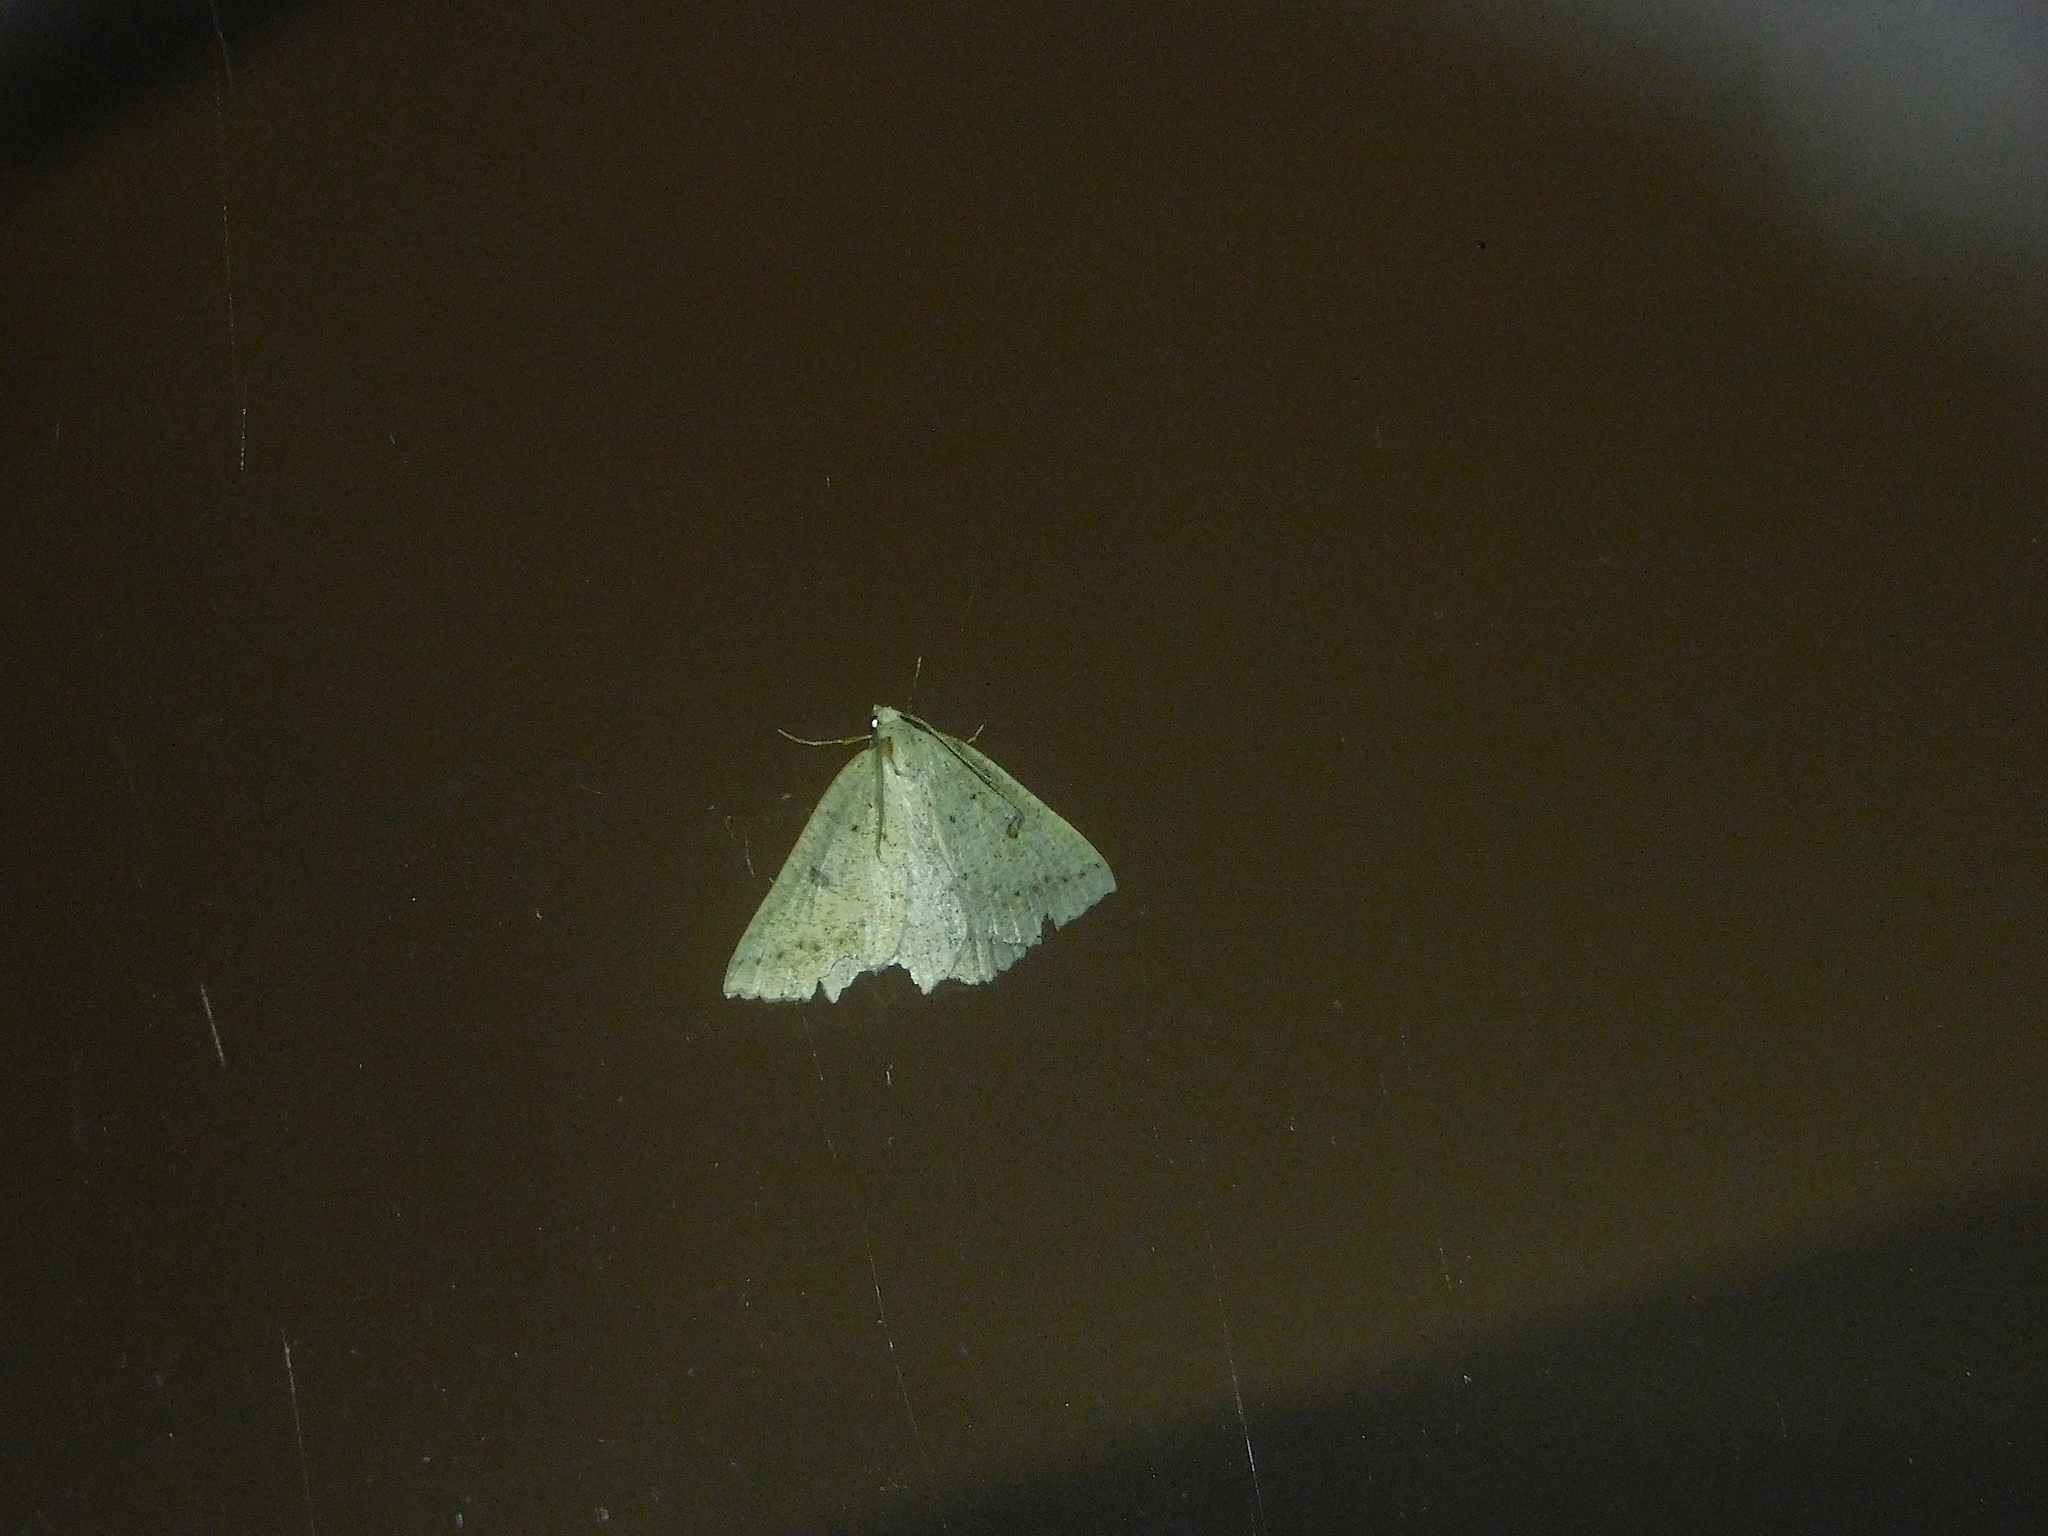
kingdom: Animalia
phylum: Arthropoda
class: Insecta
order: Lepidoptera
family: Geometridae
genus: Amelora
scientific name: Amelora zophopasta
